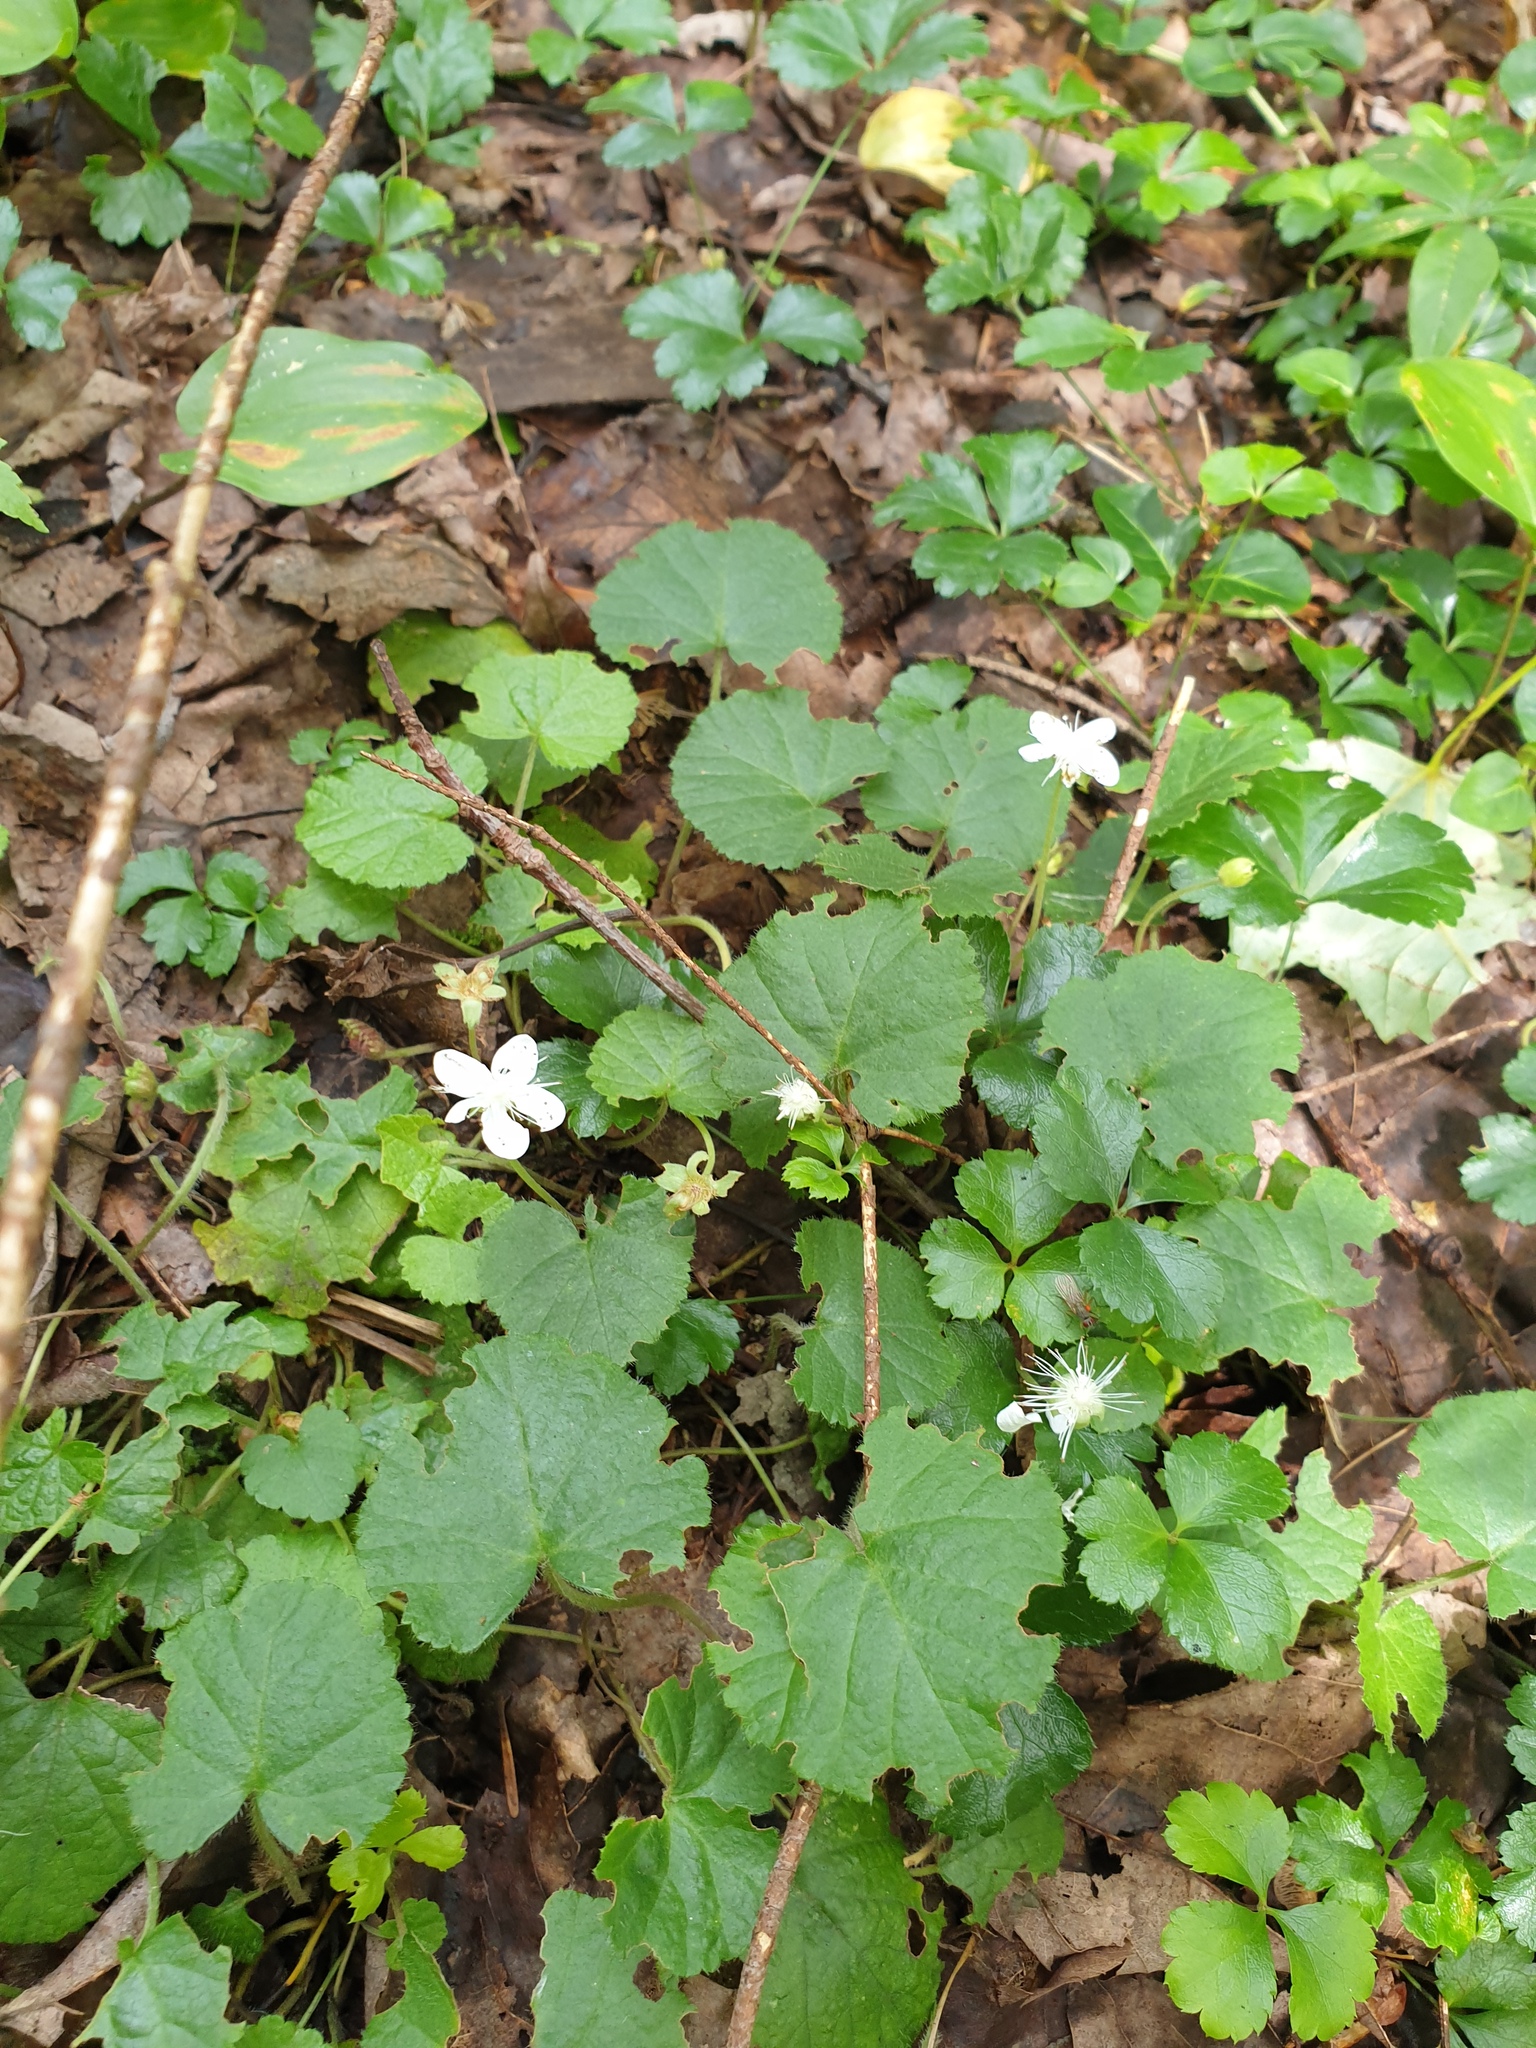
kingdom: Plantae
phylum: Tracheophyta
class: Magnoliopsida
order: Rosales
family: Rosaceae
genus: Dalibarda
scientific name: Dalibarda repens
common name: Dewdrop
